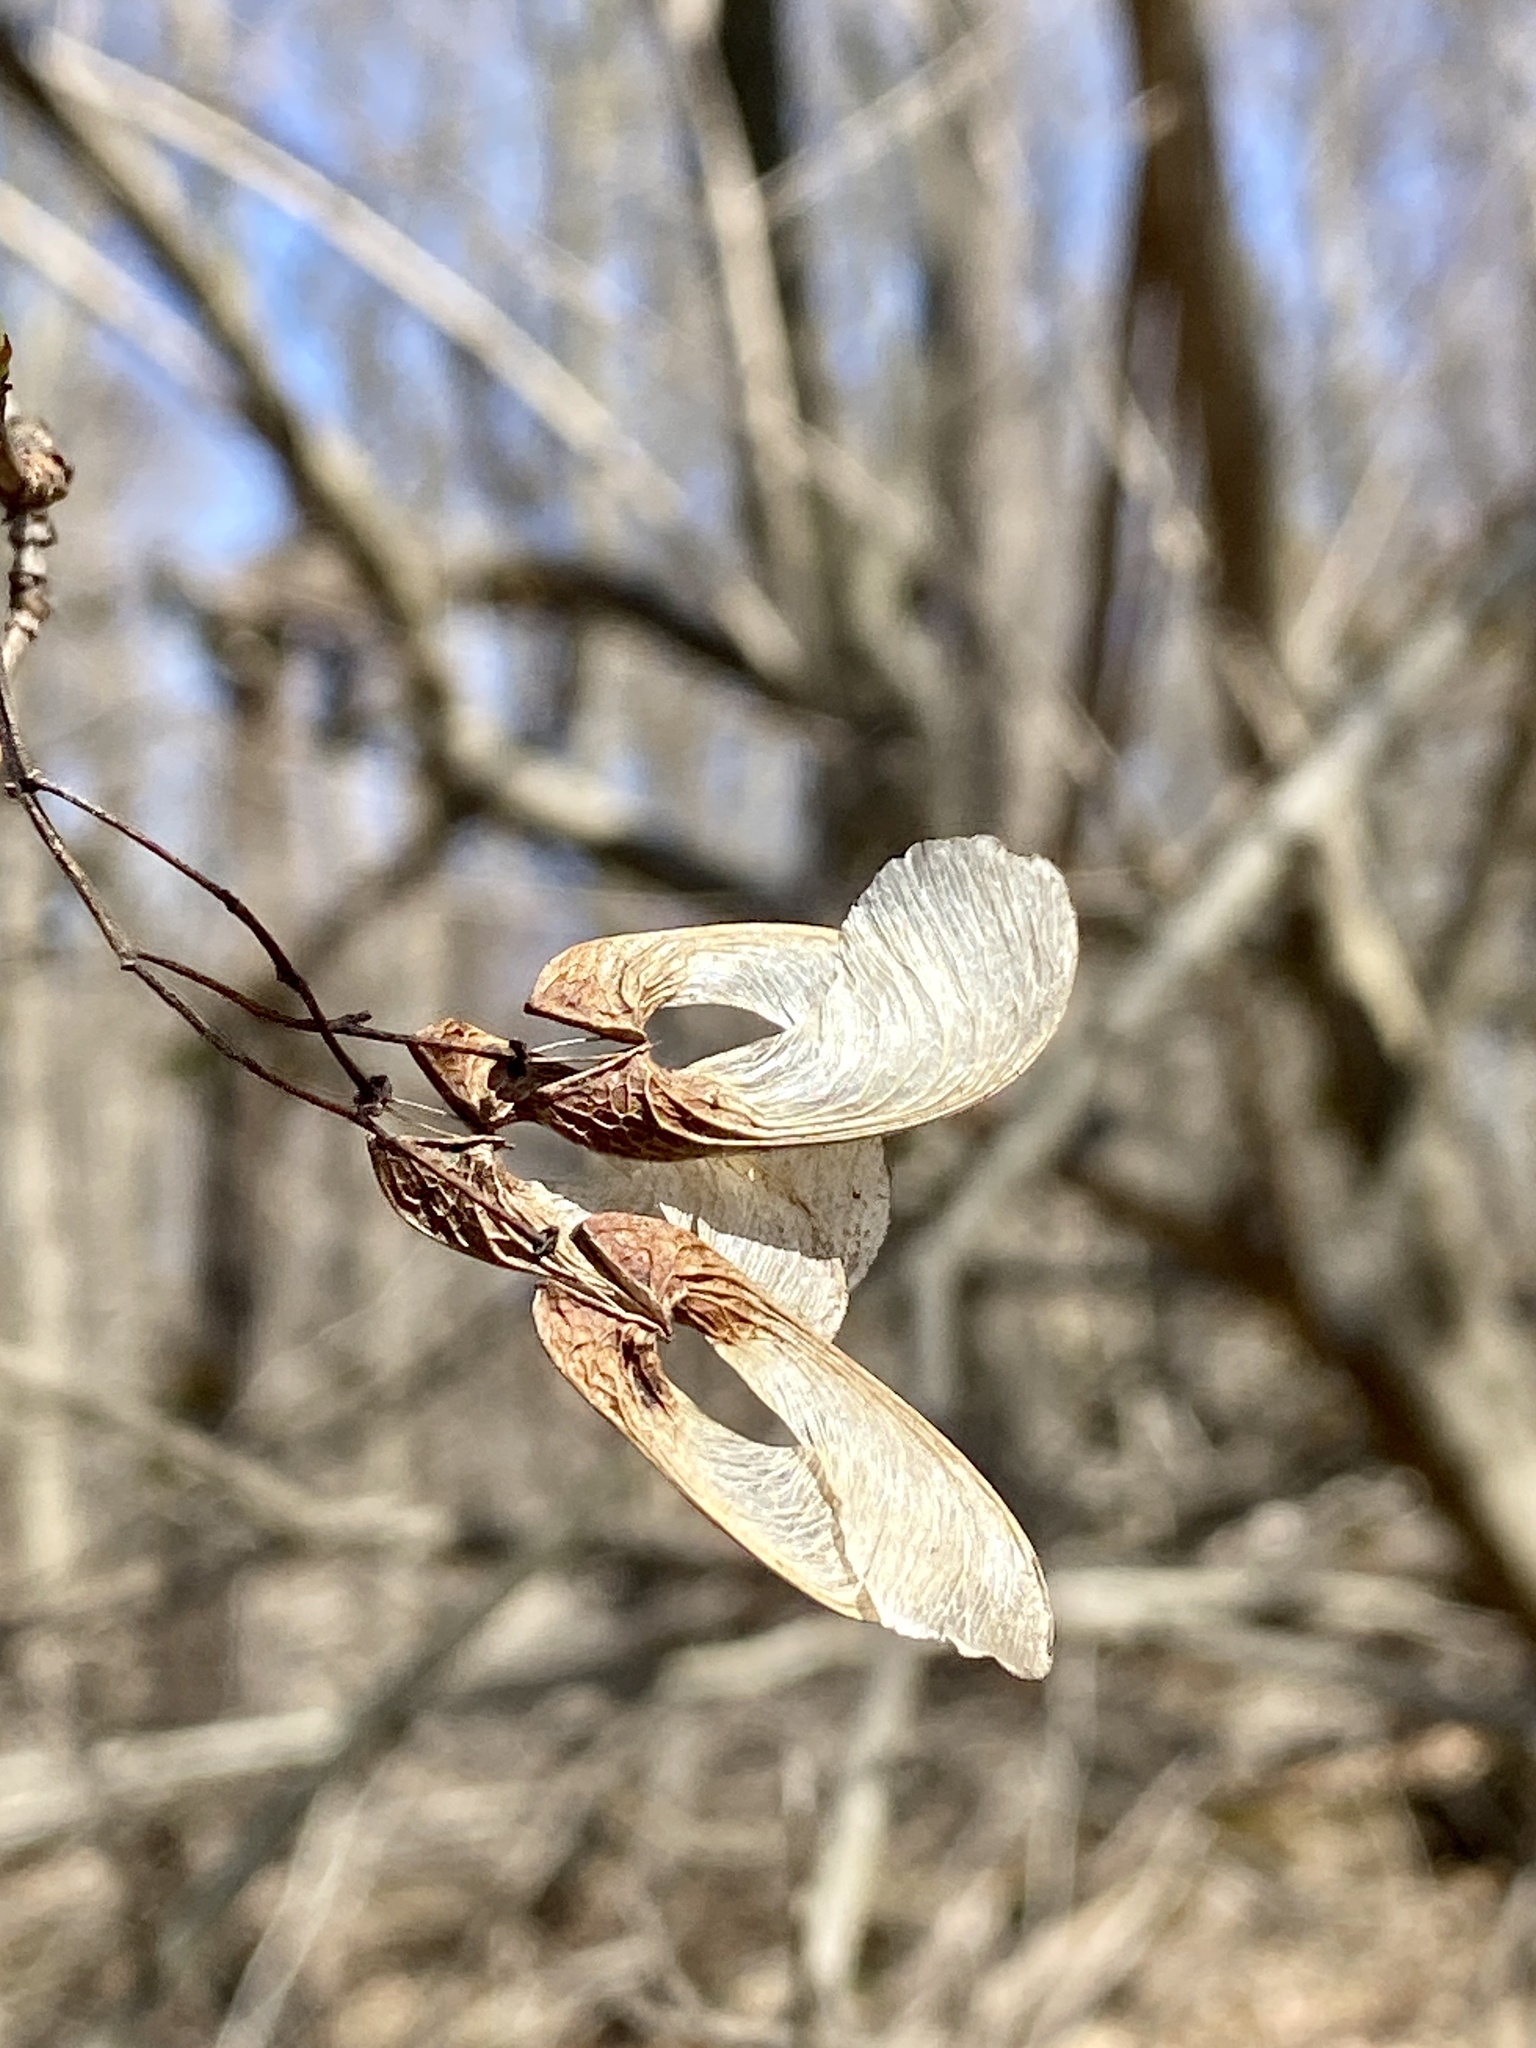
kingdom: Plantae
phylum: Tracheophyta
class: Magnoliopsida
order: Sapindales
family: Sapindaceae
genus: Acer
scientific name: Acer tataricum
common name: Tartar maple
